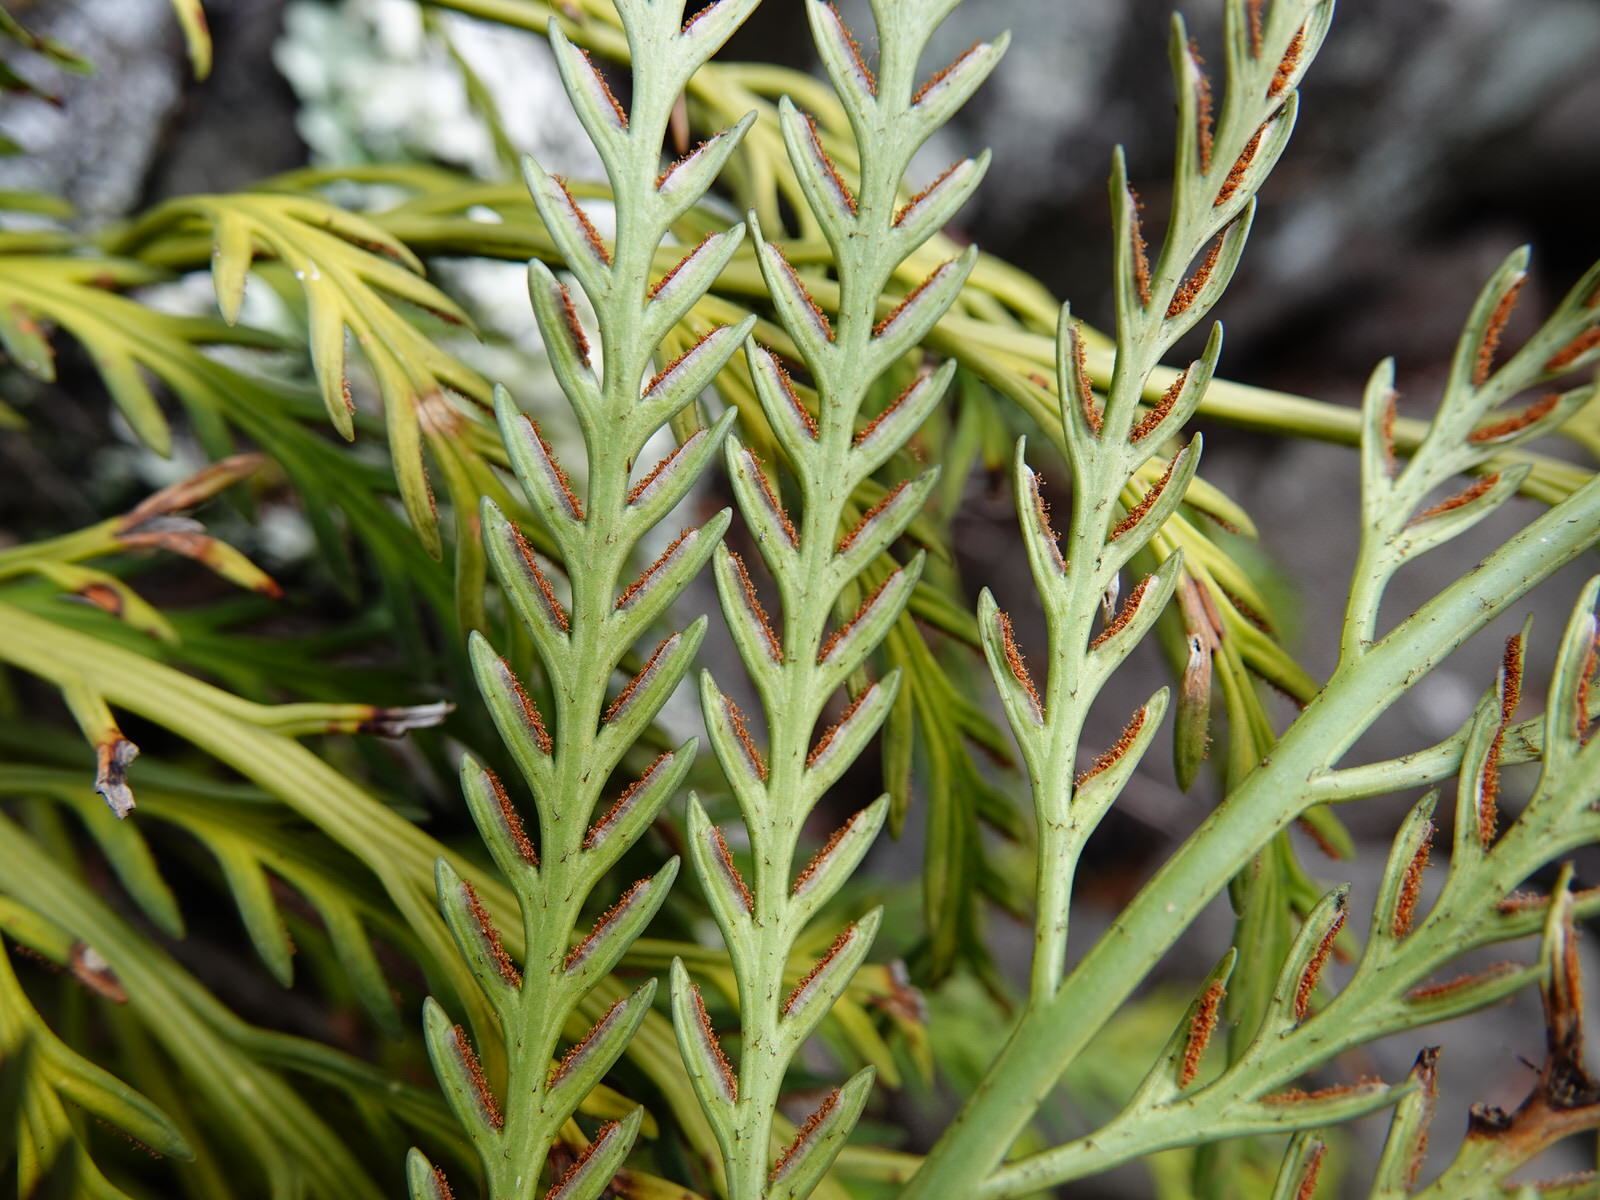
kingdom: Plantae
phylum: Tracheophyta
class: Polypodiopsida
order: Polypodiales
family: Aspleniaceae
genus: Asplenium
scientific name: Asplenium flaccidum
